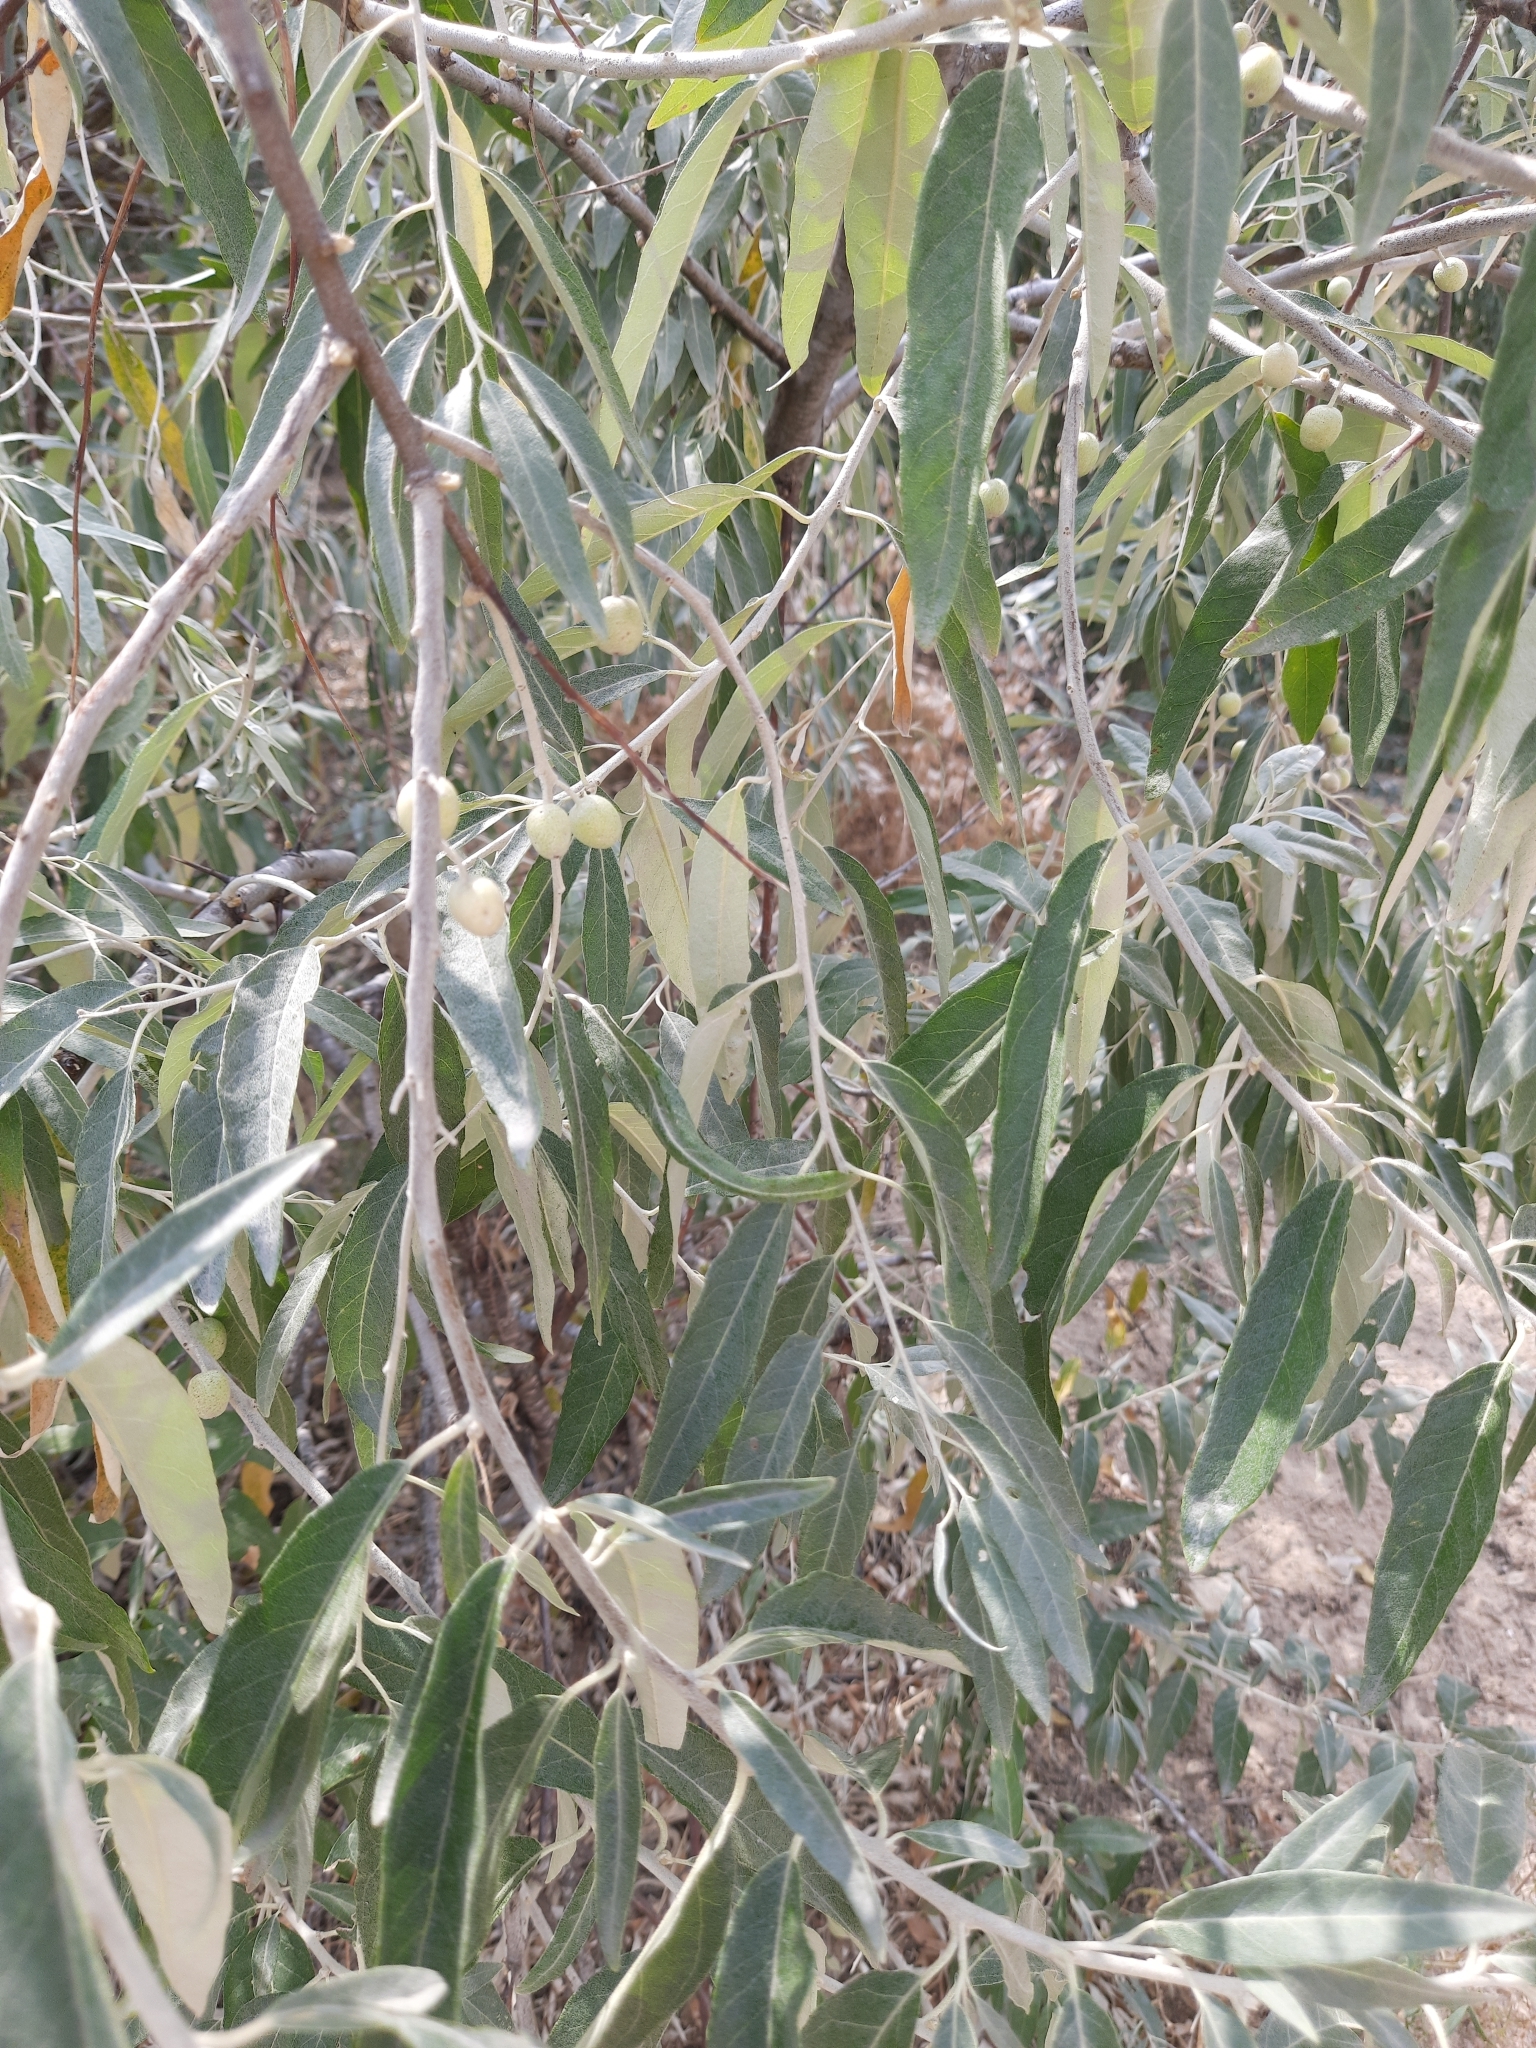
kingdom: Plantae
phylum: Tracheophyta
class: Magnoliopsida
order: Rosales
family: Elaeagnaceae
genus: Elaeagnus
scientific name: Elaeagnus angustifolia
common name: Russian olive
